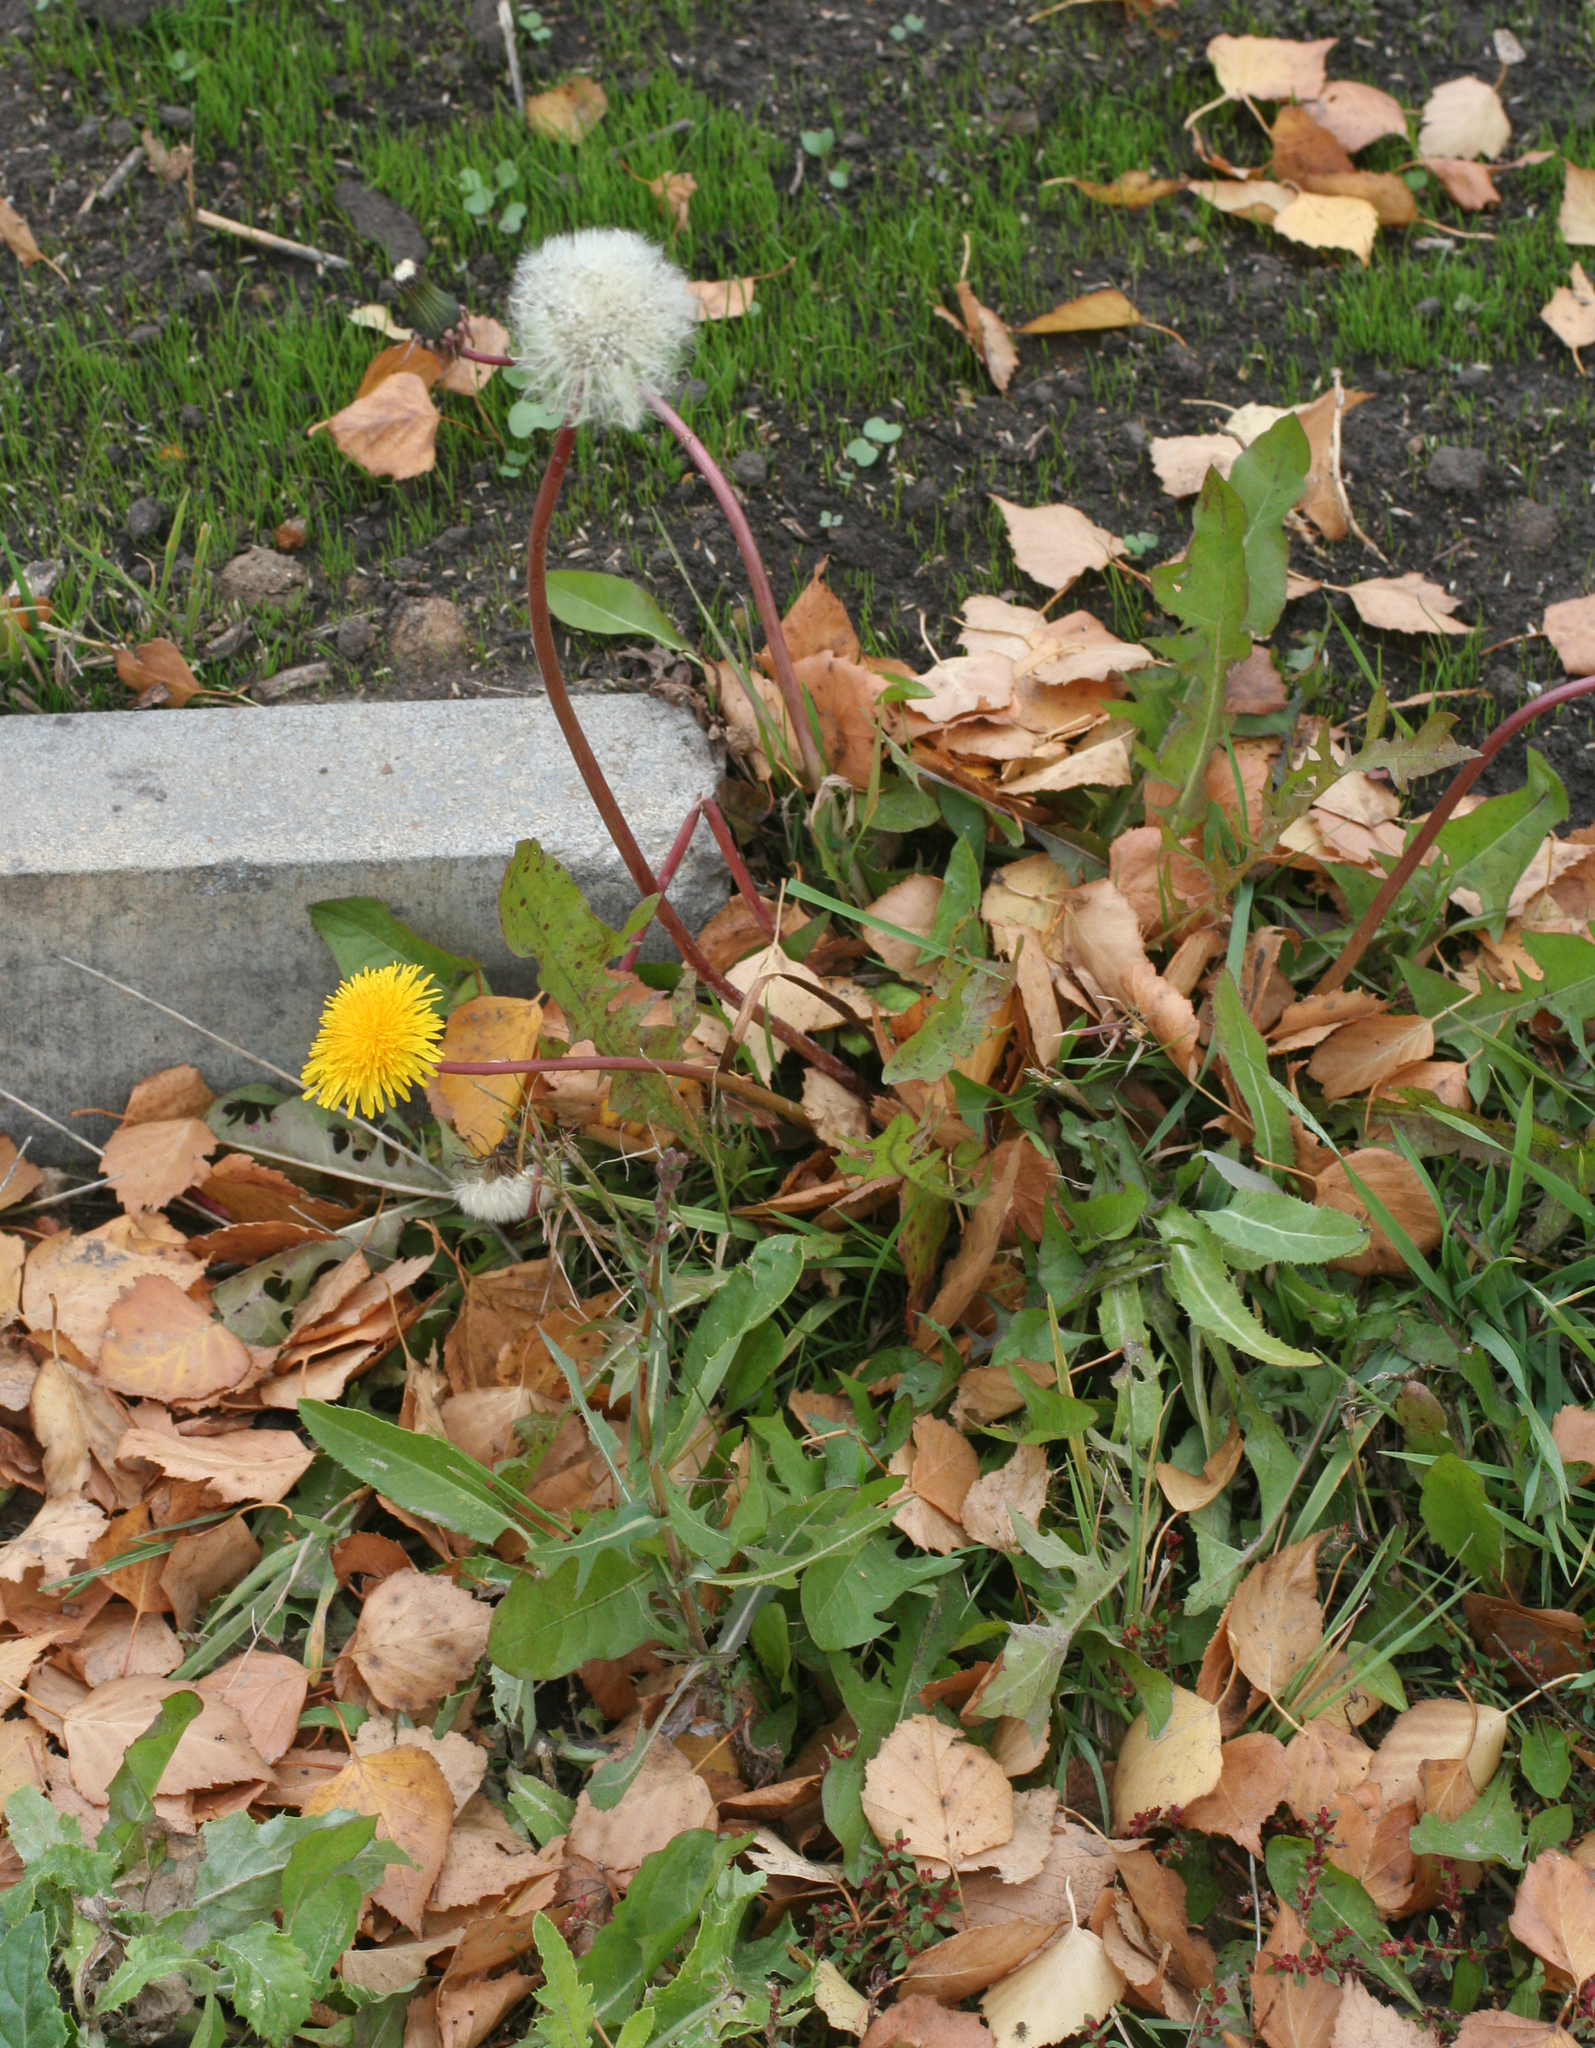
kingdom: Plantae
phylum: Tracheophyta
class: Magnoliopsida
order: Asterales
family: Asteraceae
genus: Taraxacum
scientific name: Taraxacum officinale
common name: Common dandelion
